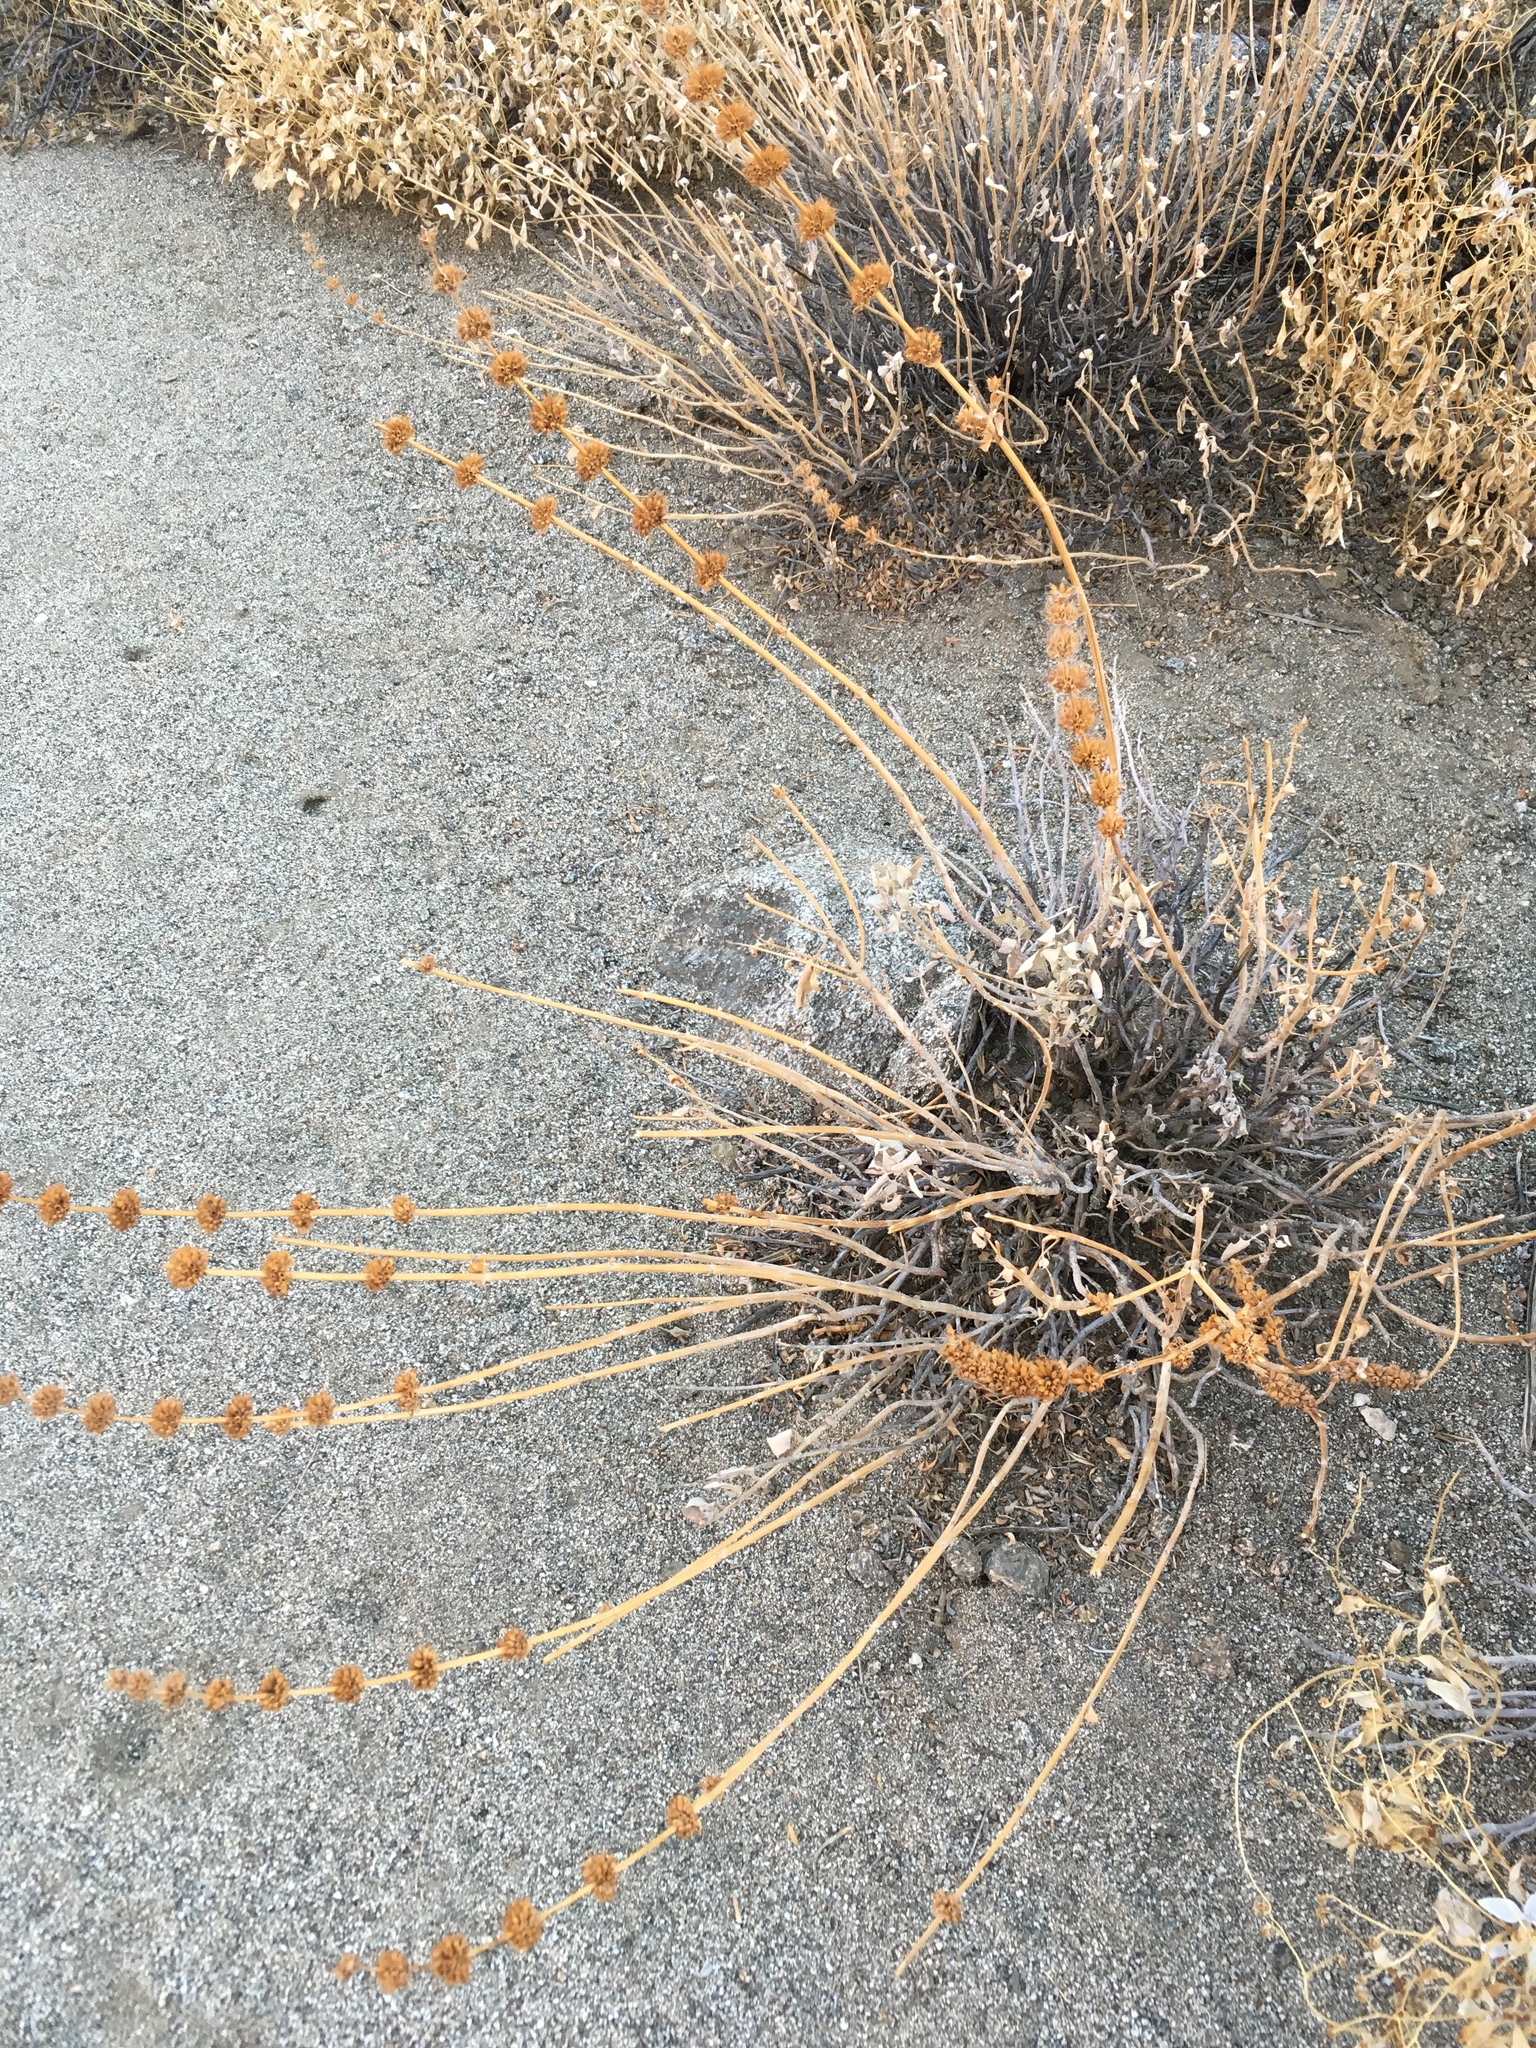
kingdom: Plantae
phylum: Tracheophyta
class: Magnoliopsida
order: Lamiales
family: Lamiaceae
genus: Salvia
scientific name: Salvia vaseyi
